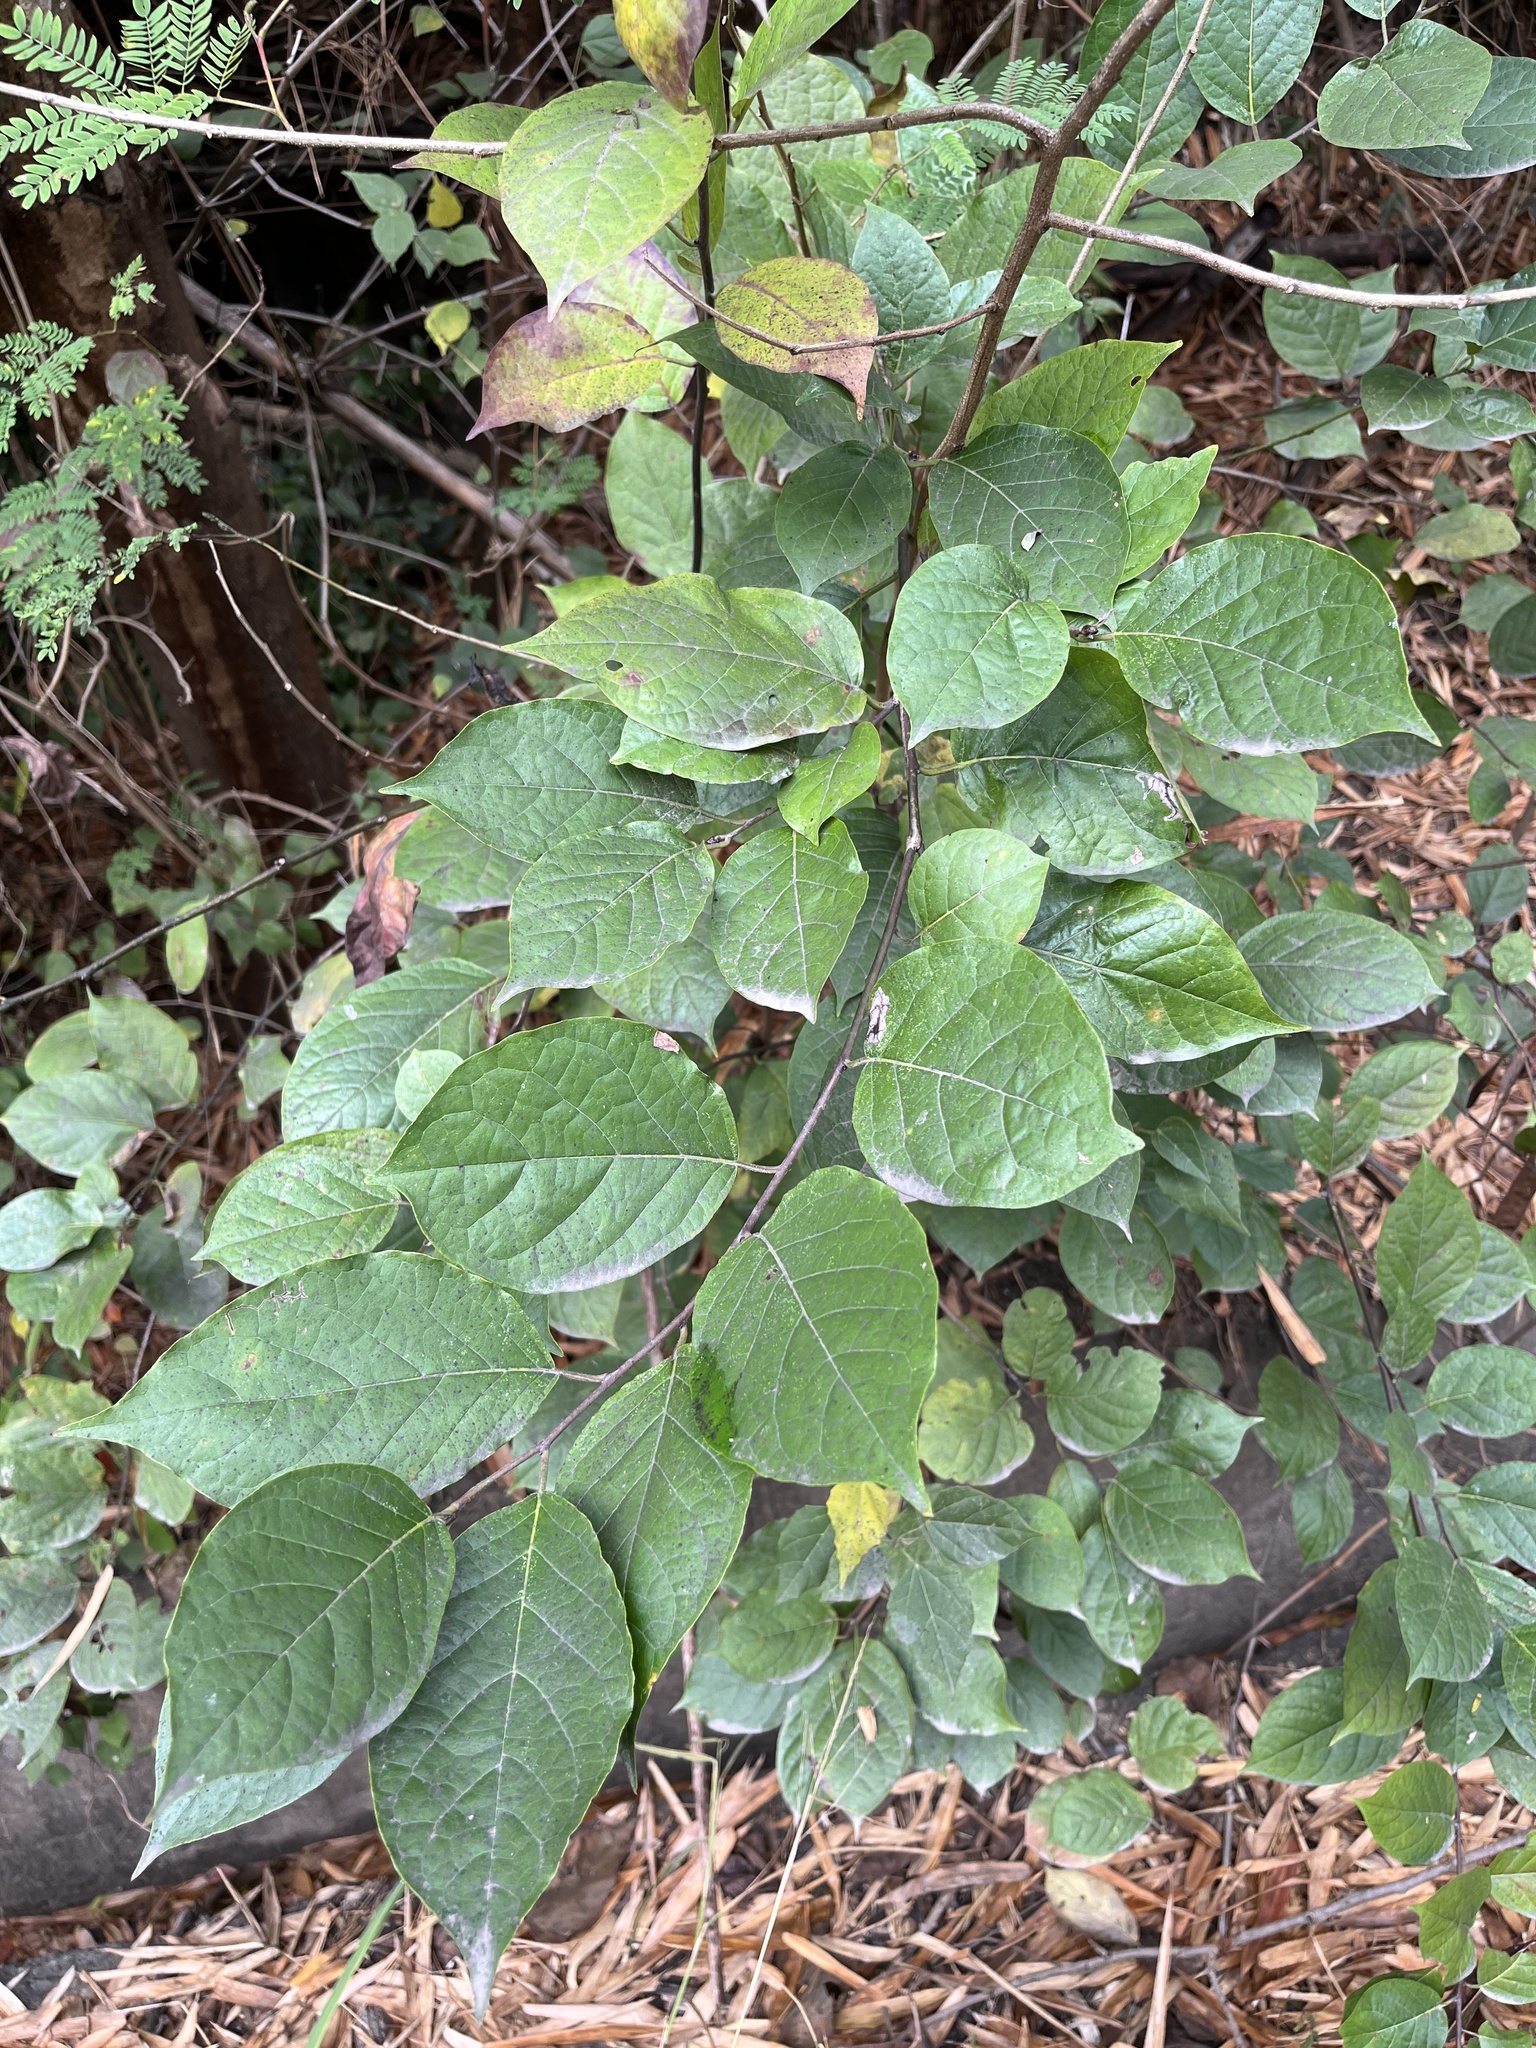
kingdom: Plantae
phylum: Tracheophyta
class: Magnoliopsida
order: Boraginales
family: Ehretiaceae
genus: Ehretia
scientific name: Ehretia resinosa
